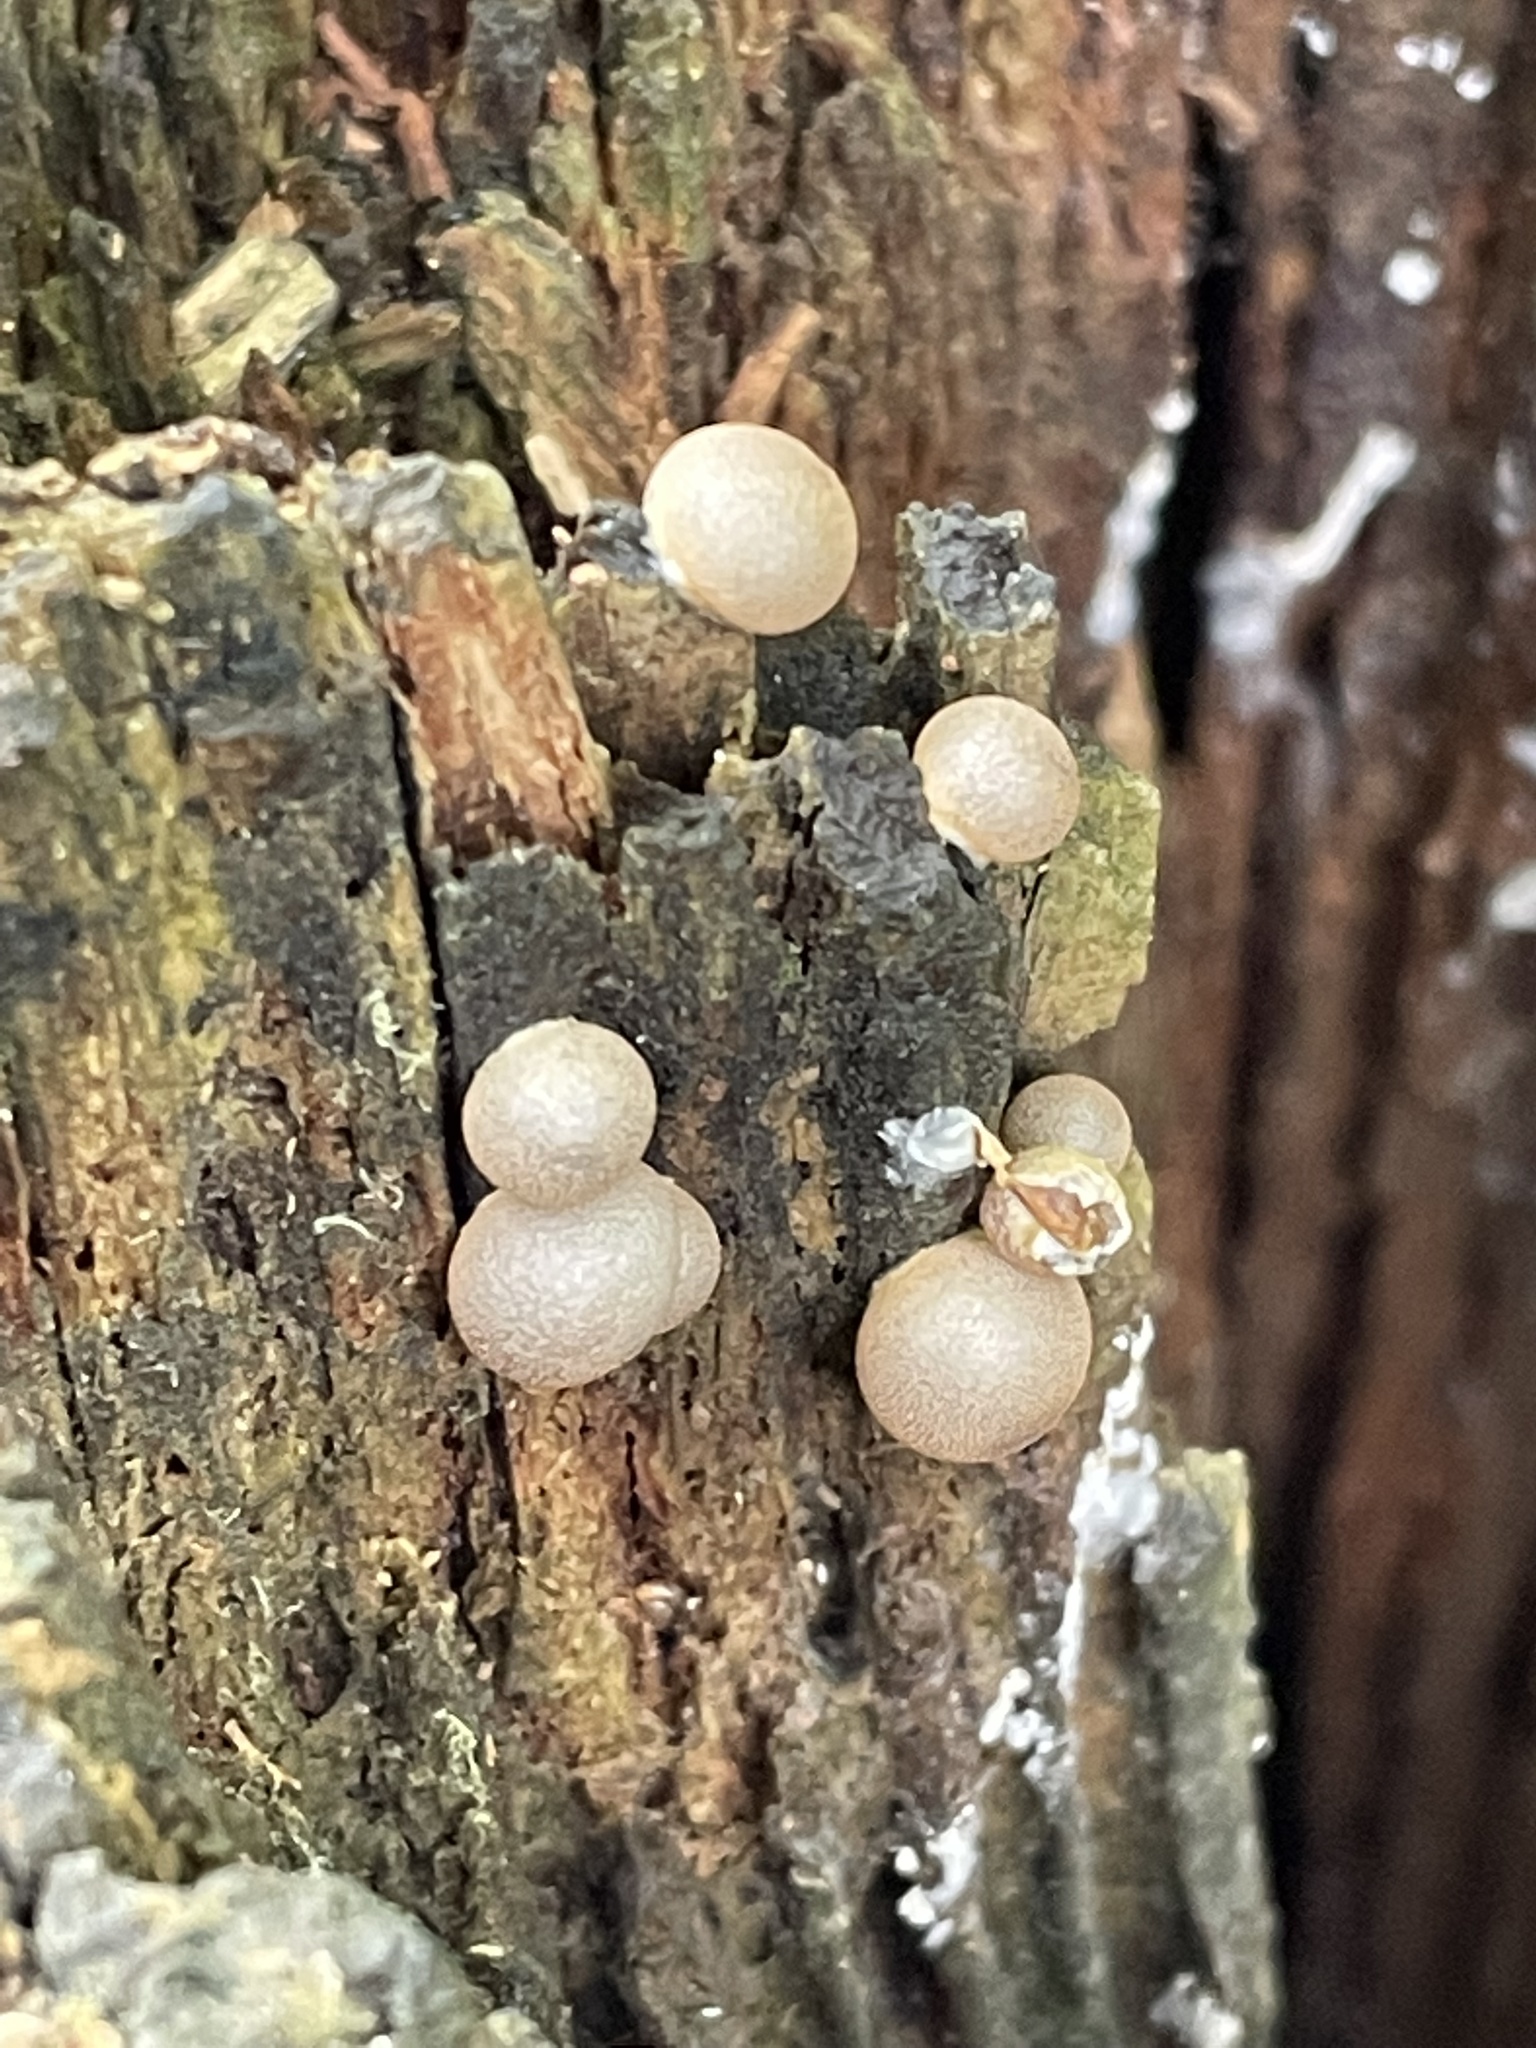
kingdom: Protozoa
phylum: Mycetozoa
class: Myxomycetes
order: Cribrariales
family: Tubiferaceae
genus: Lycogala
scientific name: Lycogala epidendrum
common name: Wolf's milk
